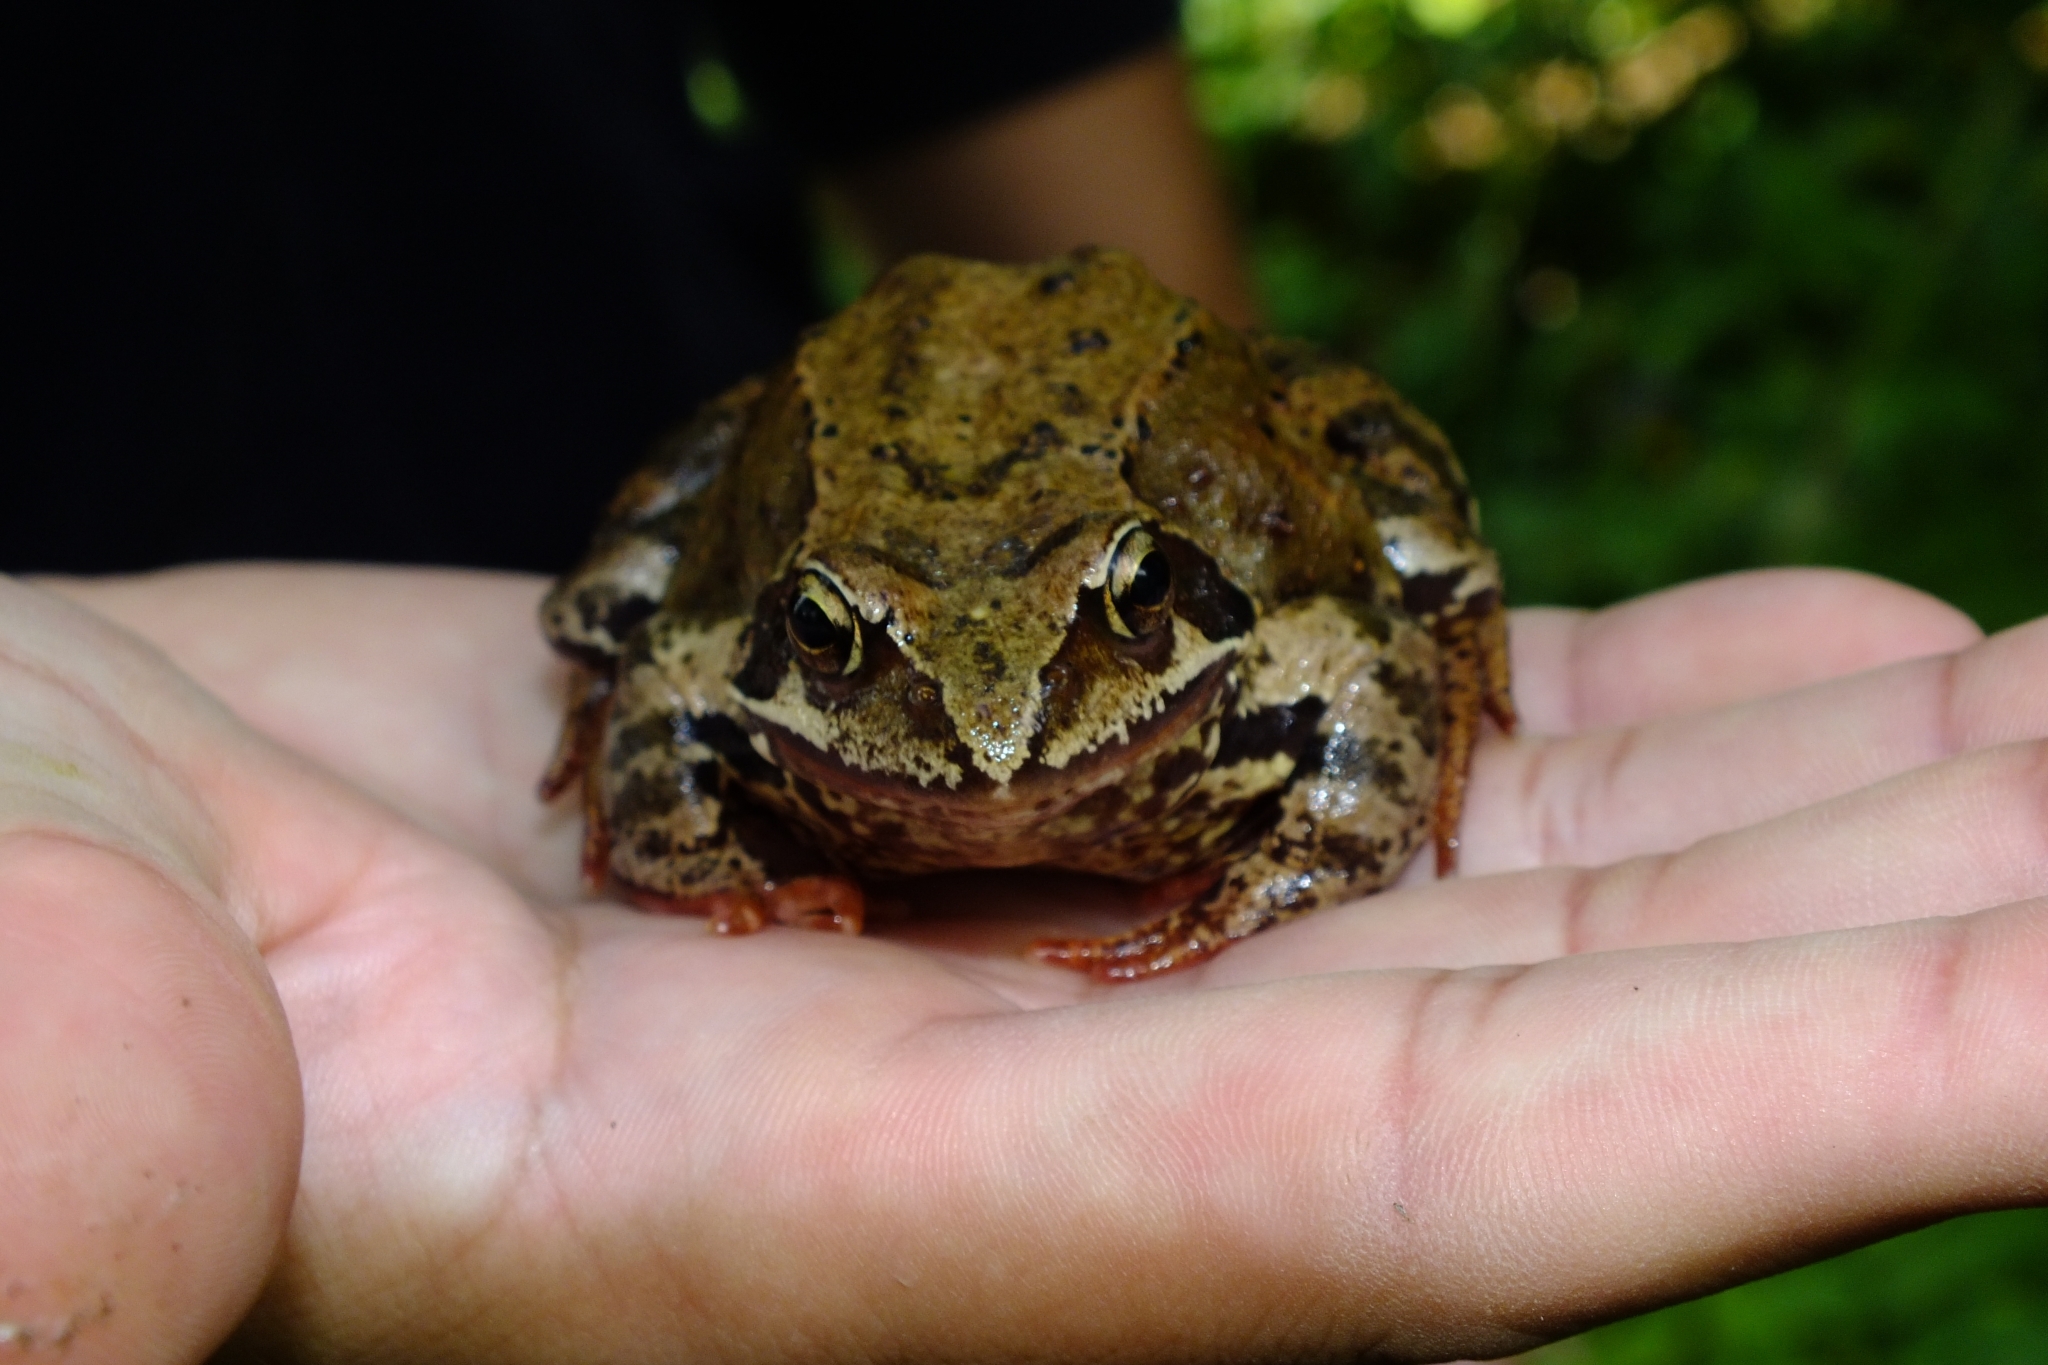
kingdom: Animalia
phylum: Chordata
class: Amphibia
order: Anura
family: Ranidae
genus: Rana
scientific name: Rana temporaria
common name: Common frog
